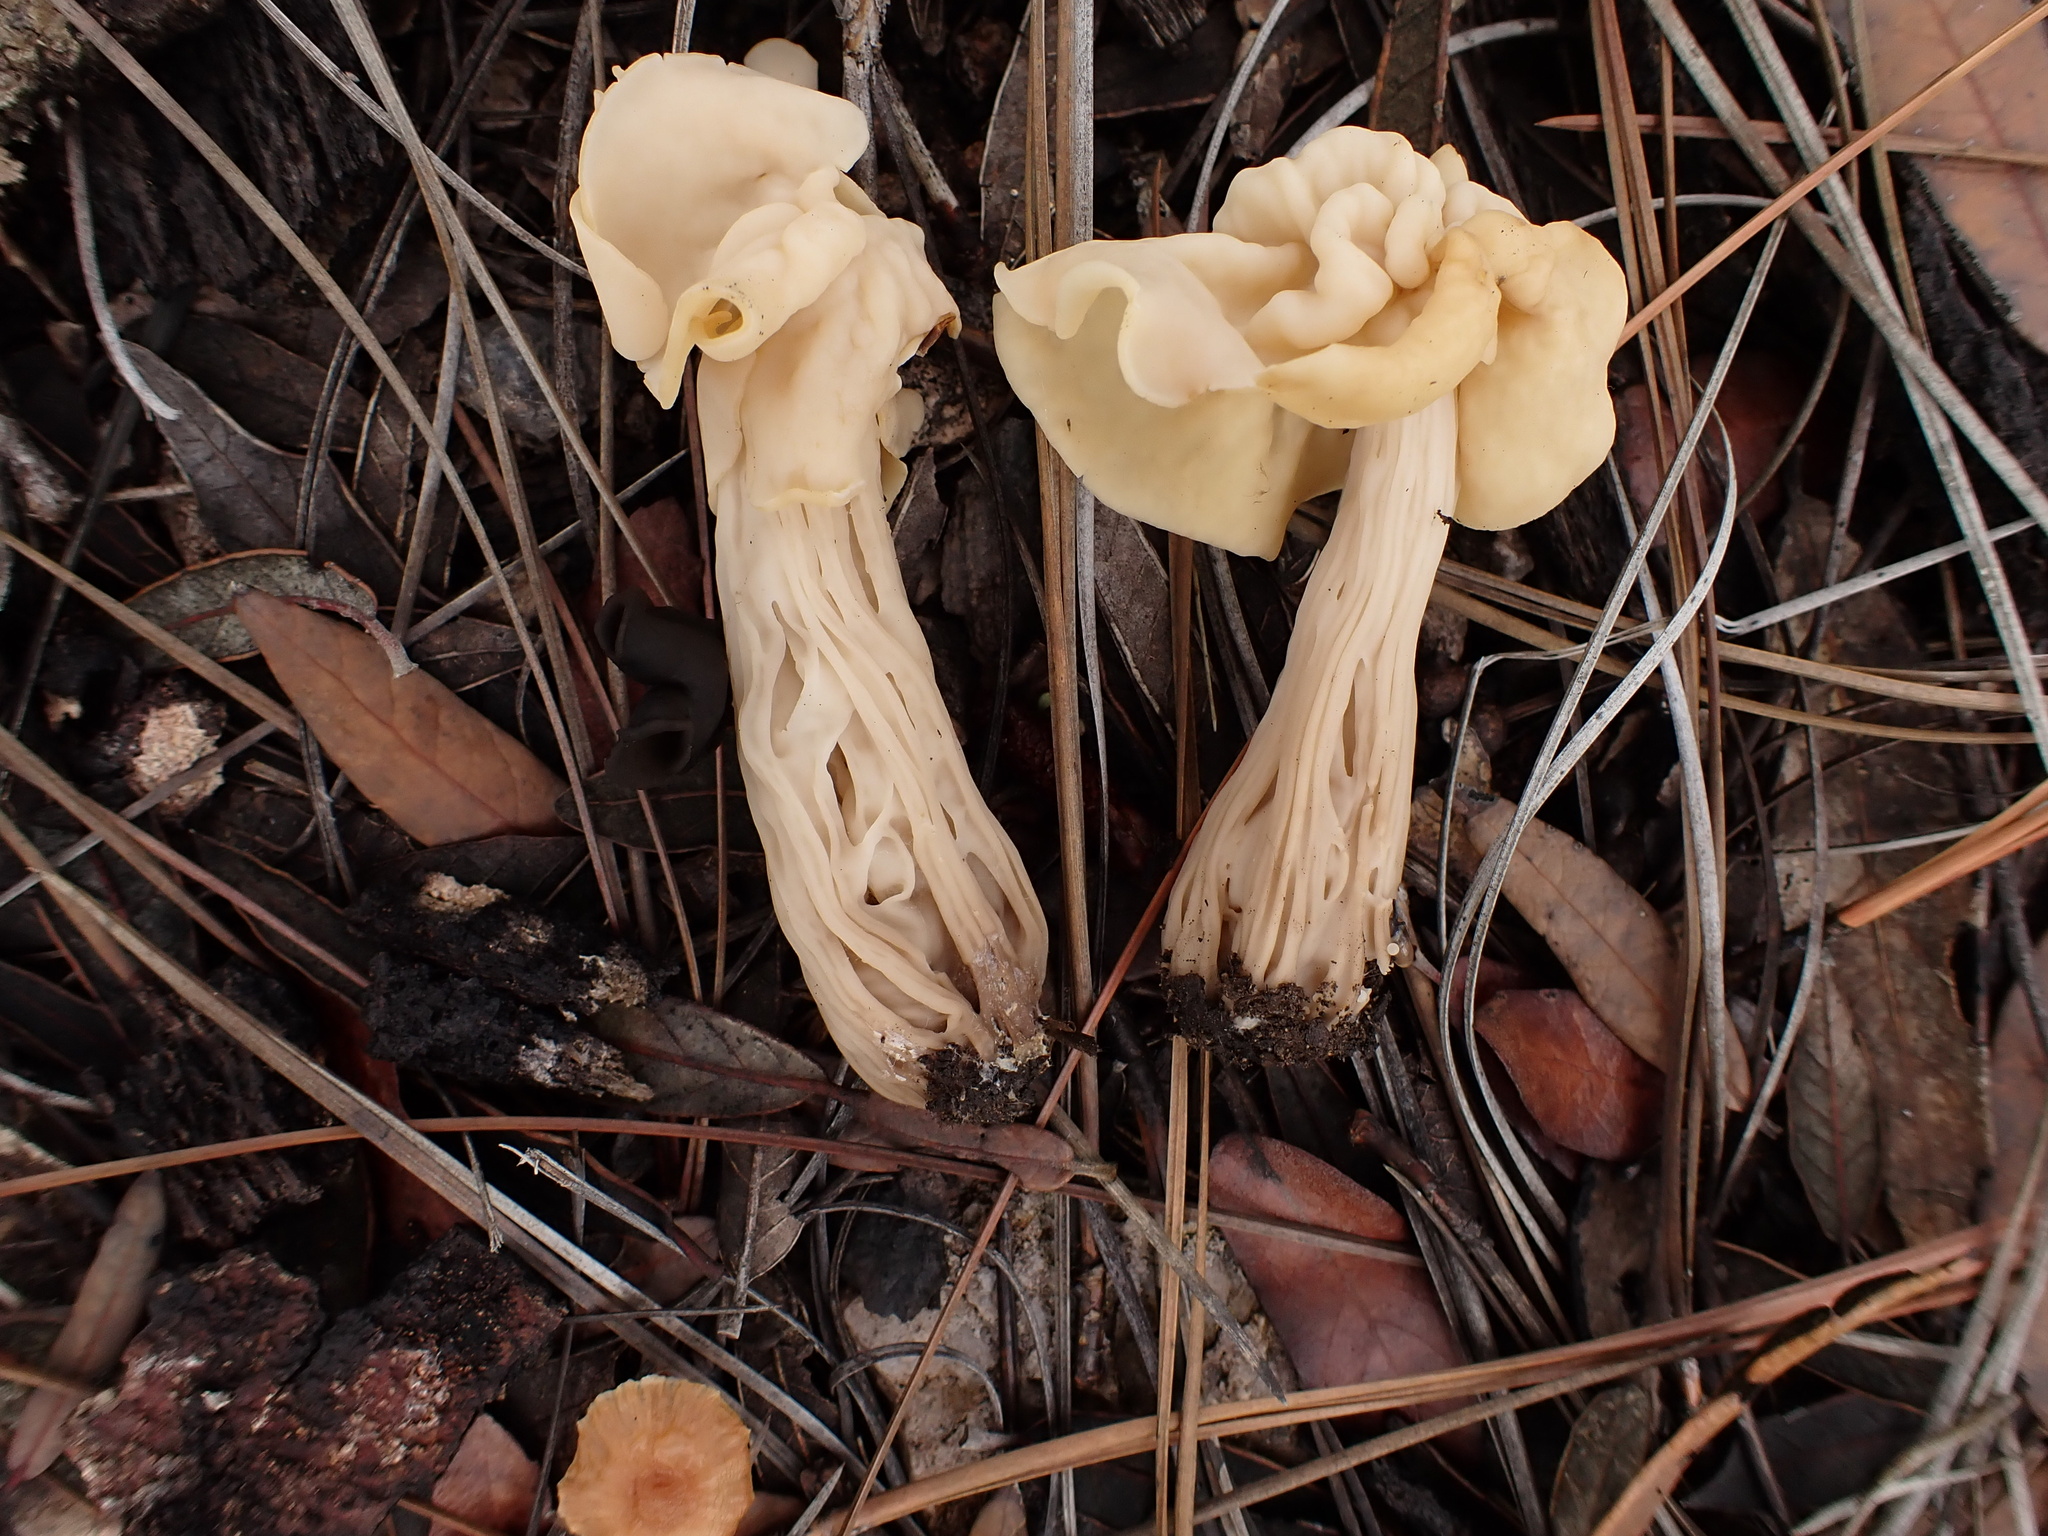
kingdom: Fungi
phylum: Ascomycota
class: Pezizomycetes
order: Pezizales
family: Helvellaceae
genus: Helvella
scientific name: Helvella crispa
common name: White saddle
